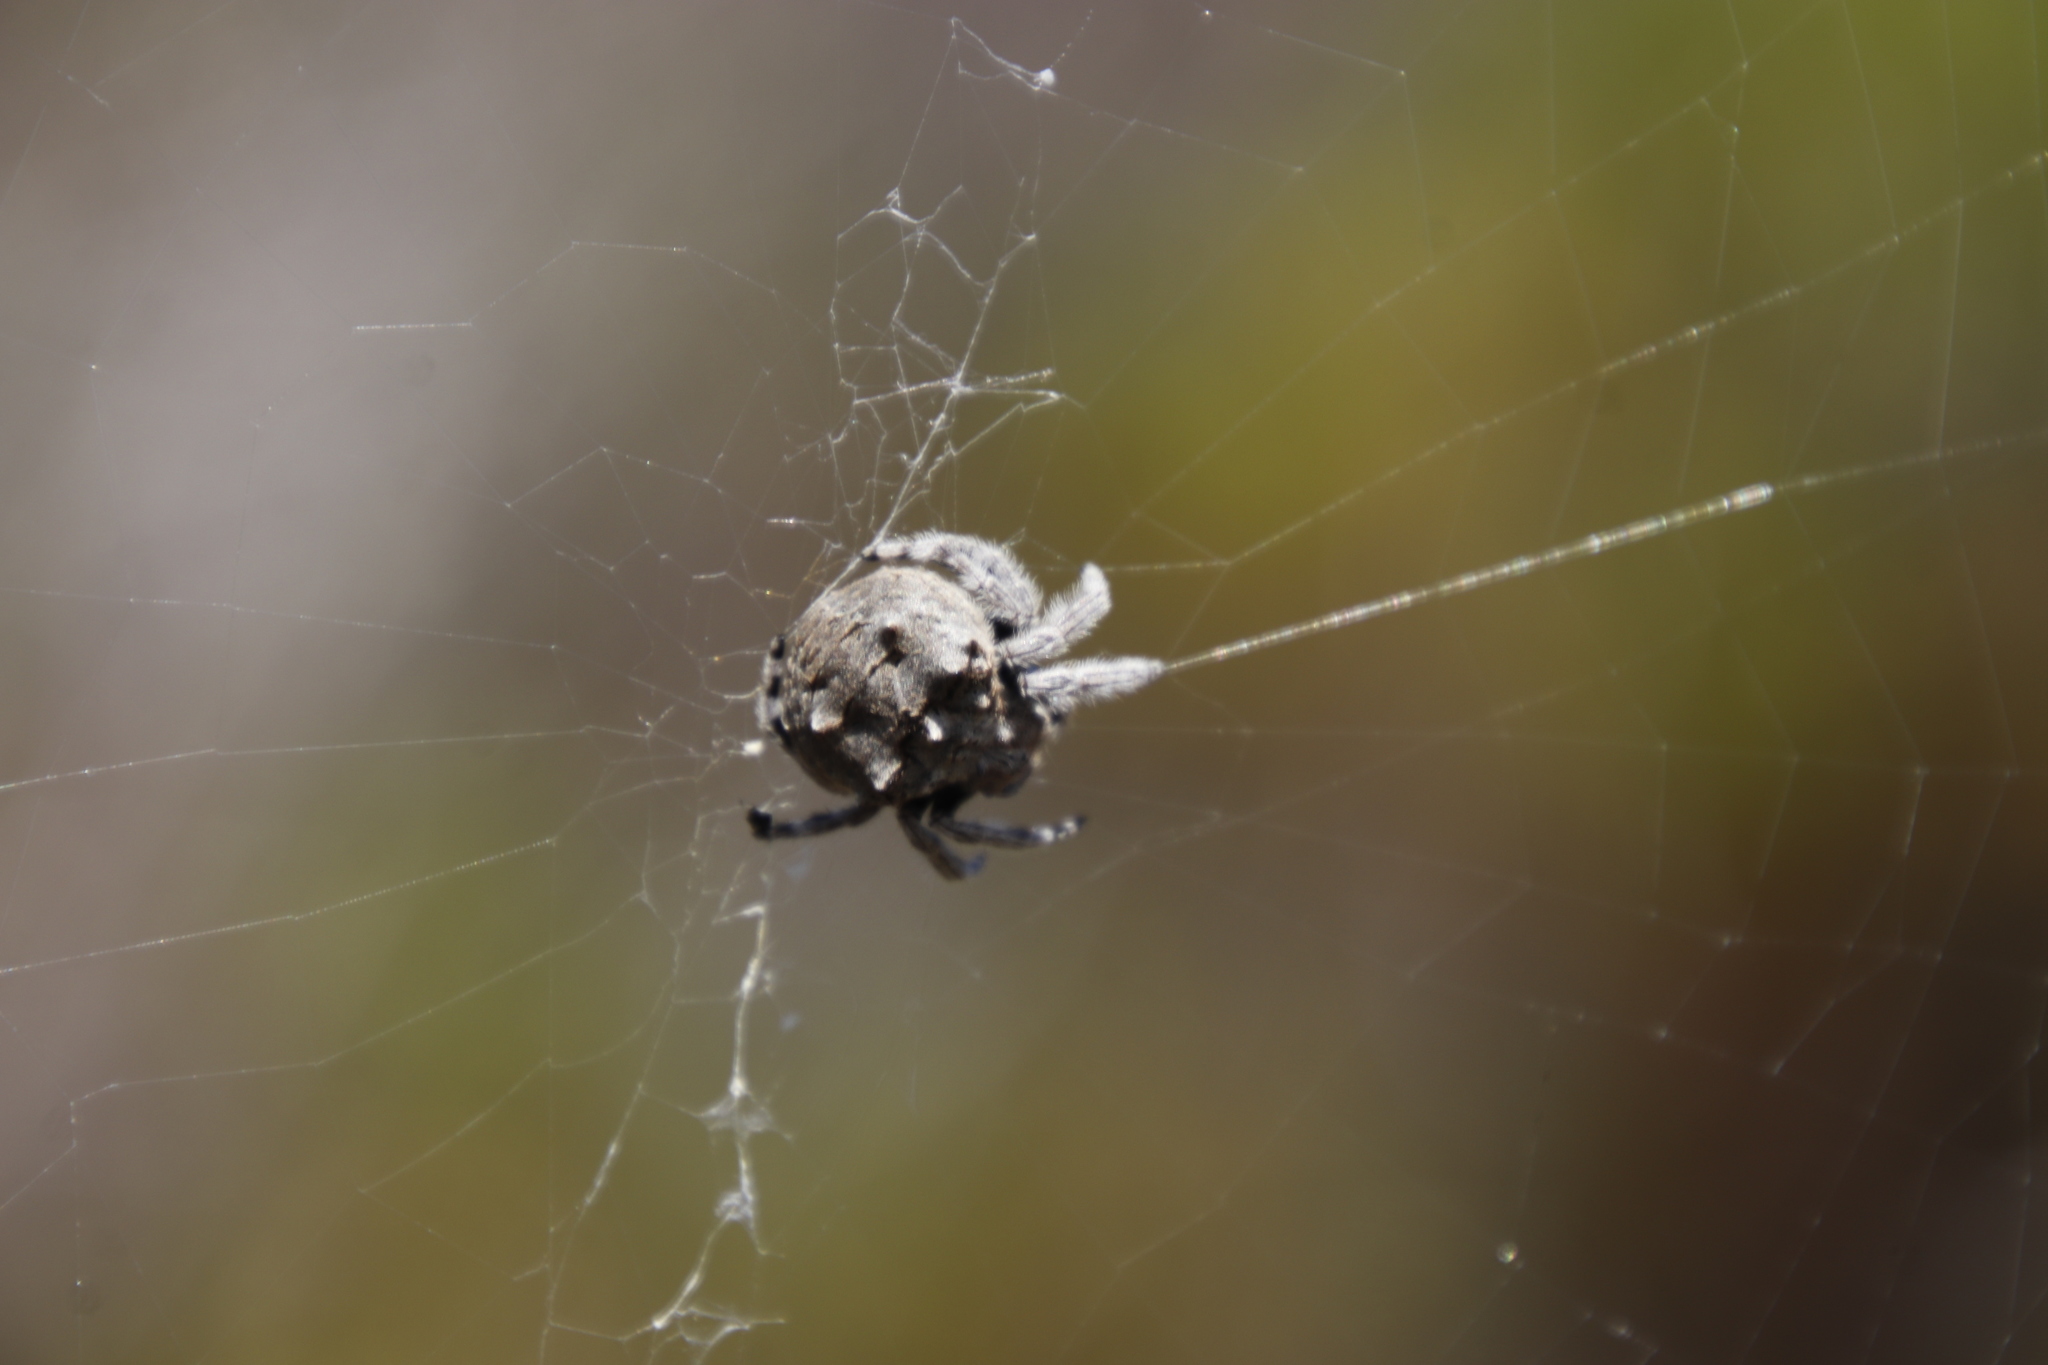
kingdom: Animalia
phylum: Arthropoda
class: Arachnida
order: Araneae
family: Araneidae
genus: Caerostris
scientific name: Caerostris sexcuspidata
